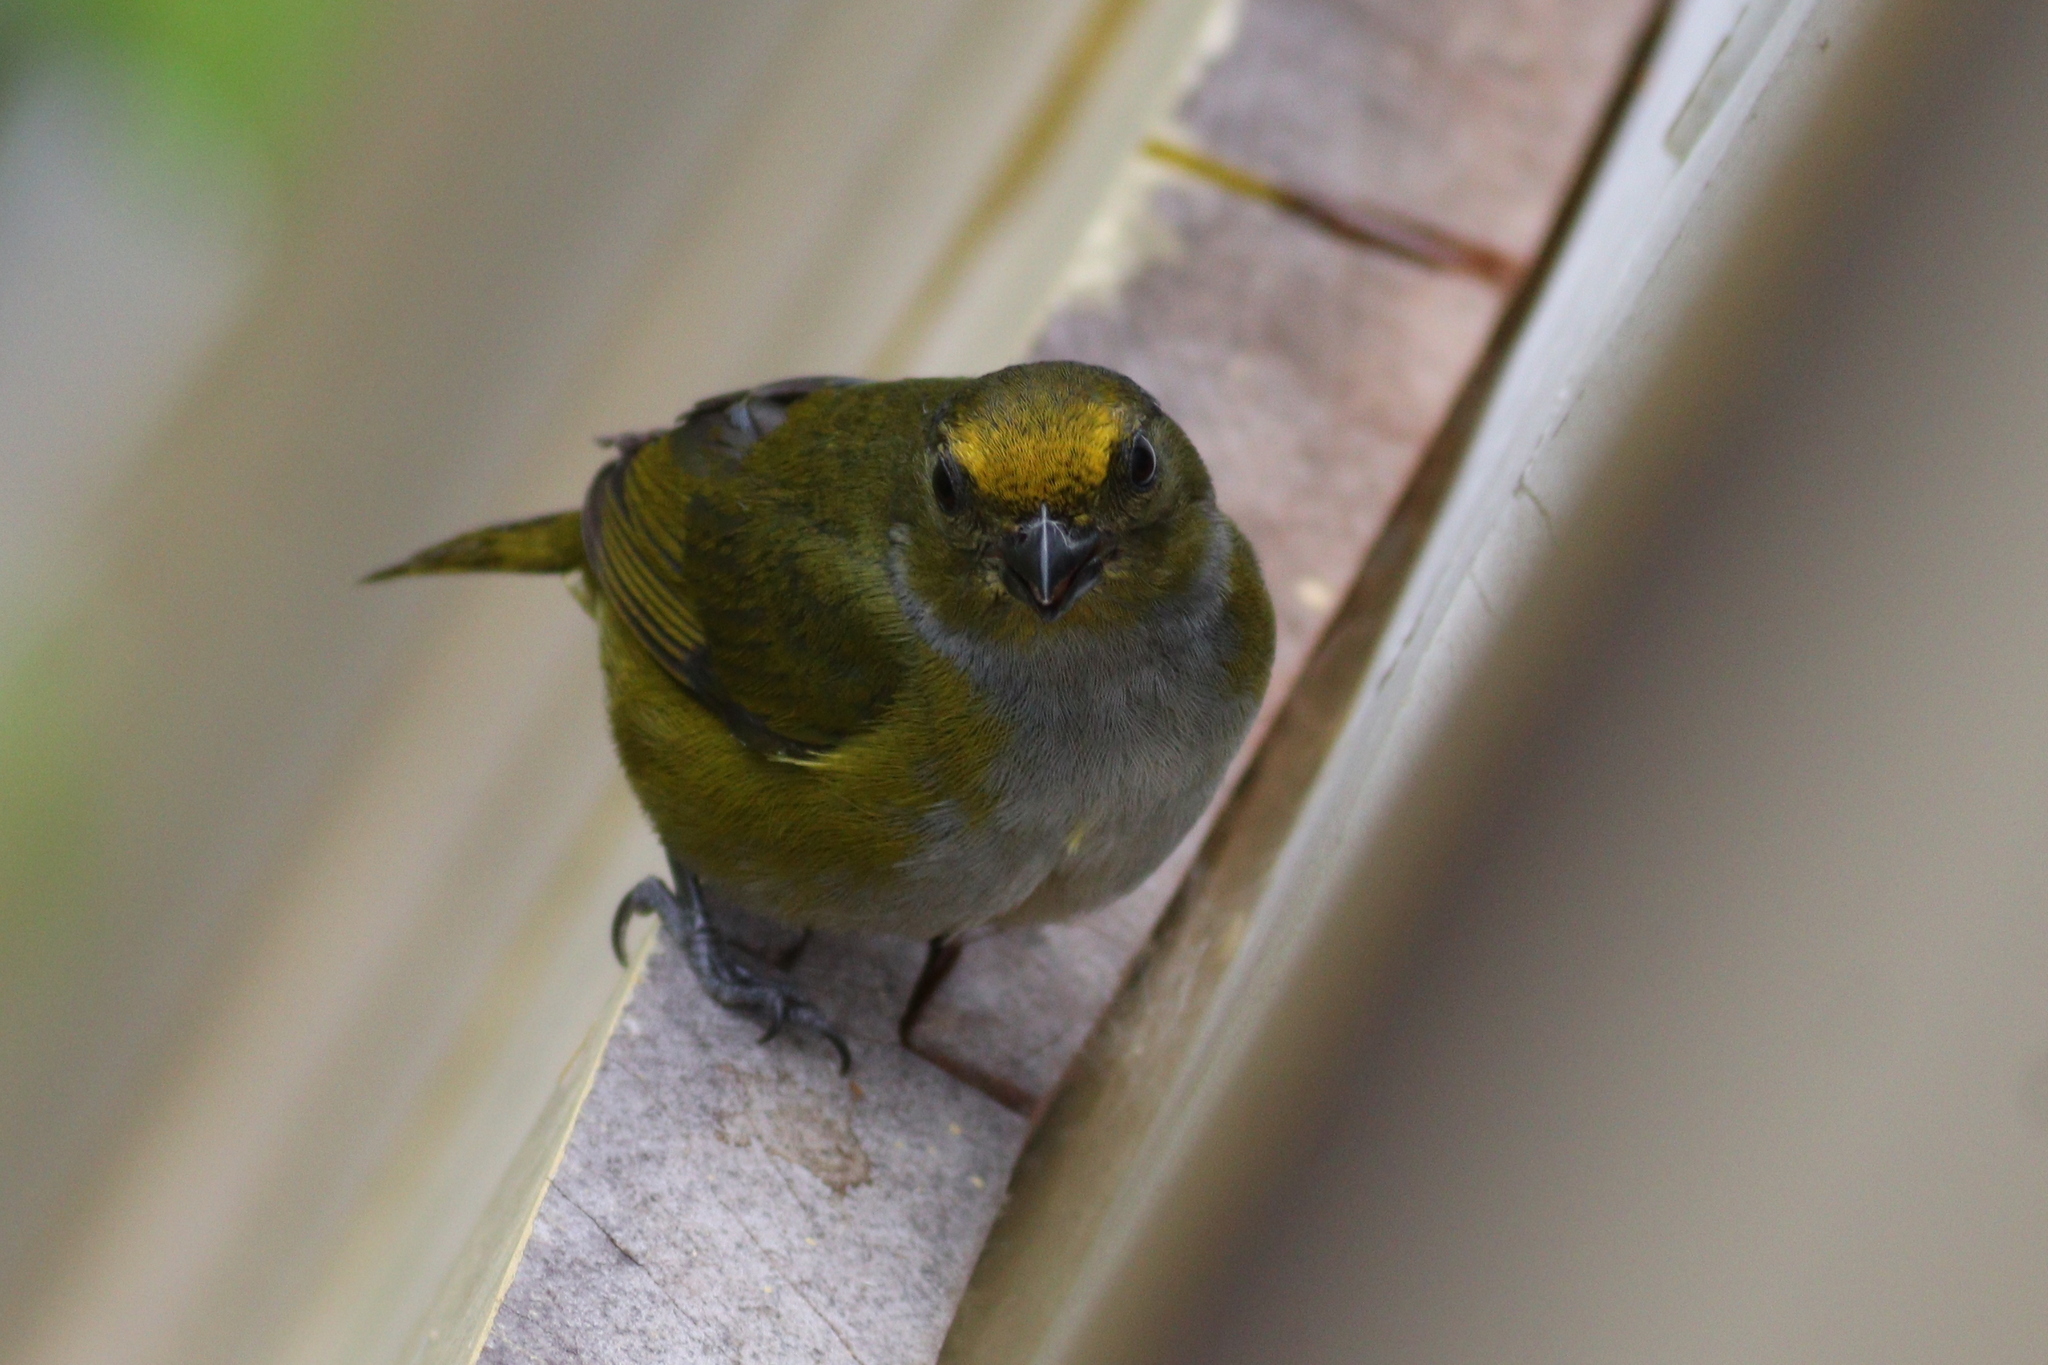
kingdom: Animalia
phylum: Chordata
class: Aves
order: Passeriformes
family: Fringillidae
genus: Euphonia
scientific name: Euphonia xanthogaster
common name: Orange-bellied euphonia
